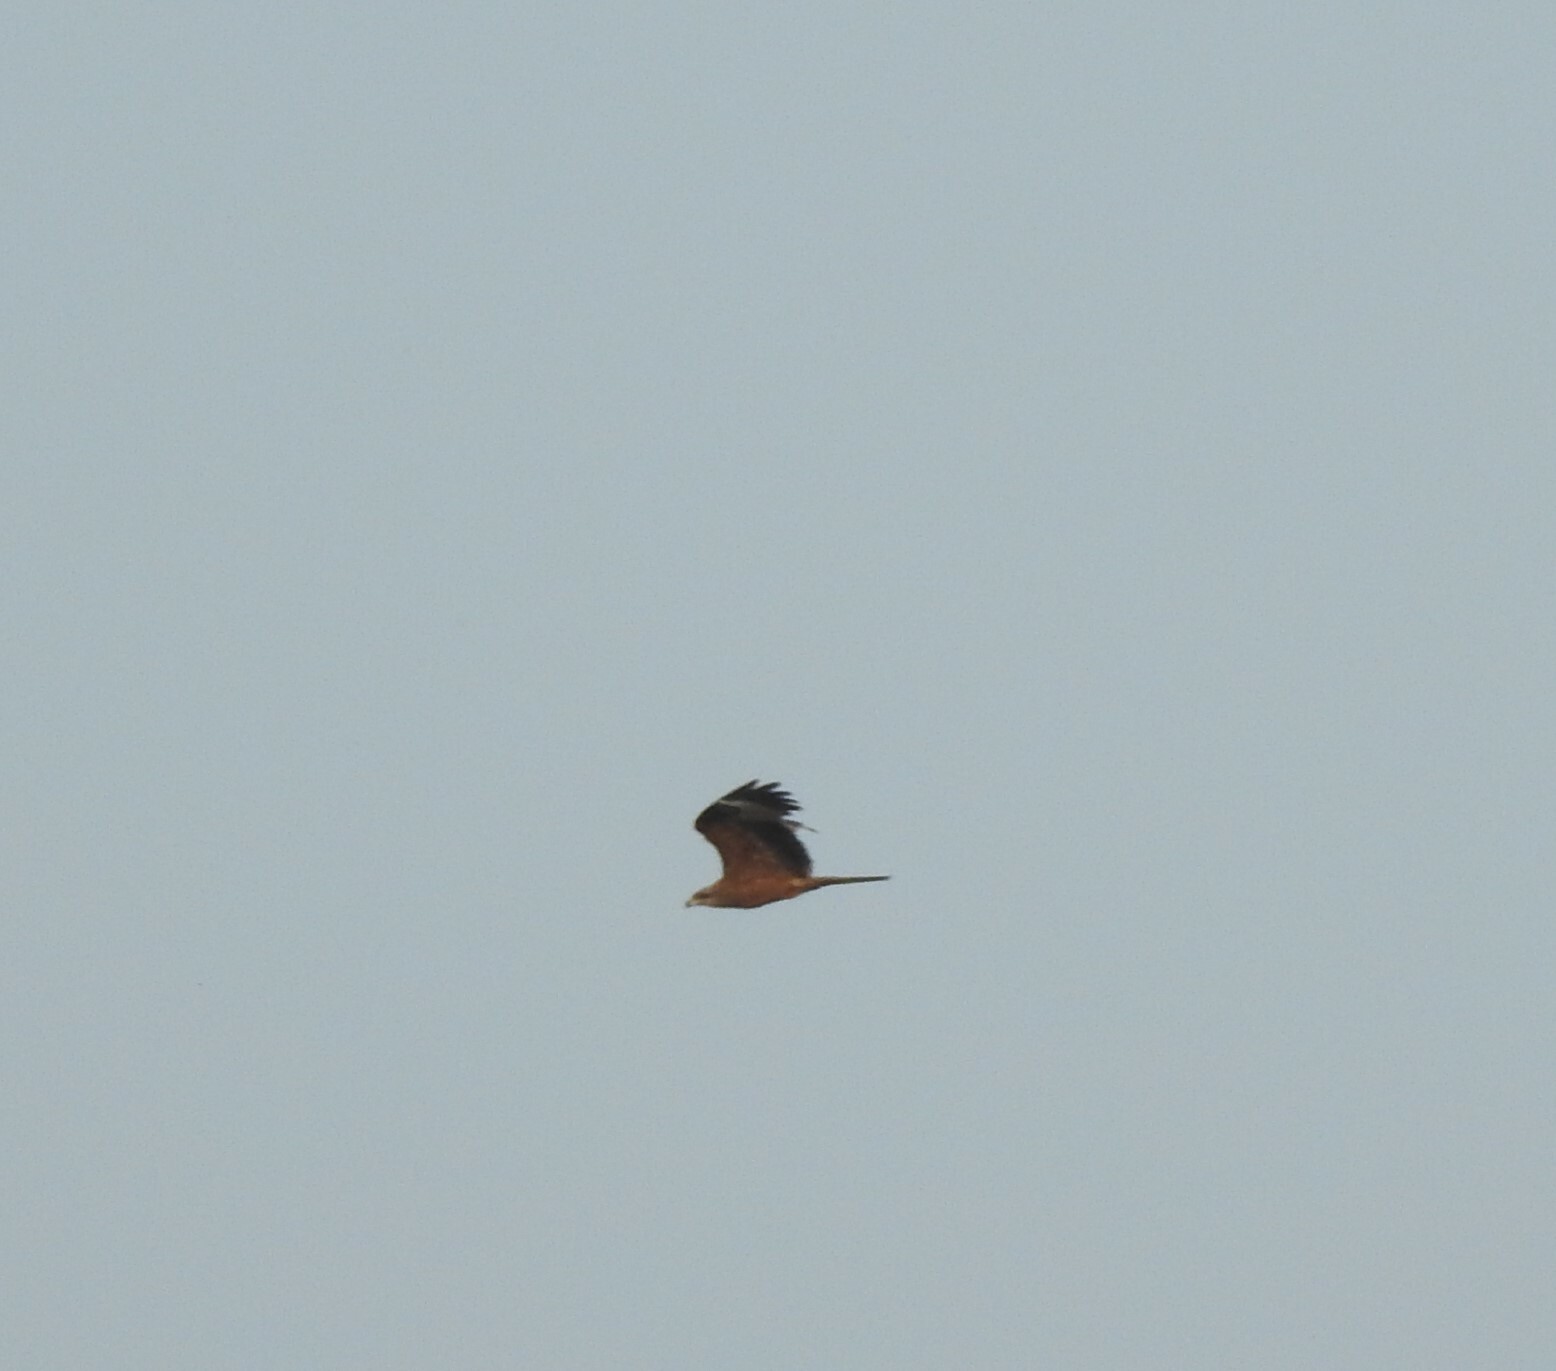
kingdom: Animalia
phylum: Chordata
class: Aves
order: Accipitriformes
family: Accipitridae
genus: Milvus
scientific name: Milvus migrans
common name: Black kite
